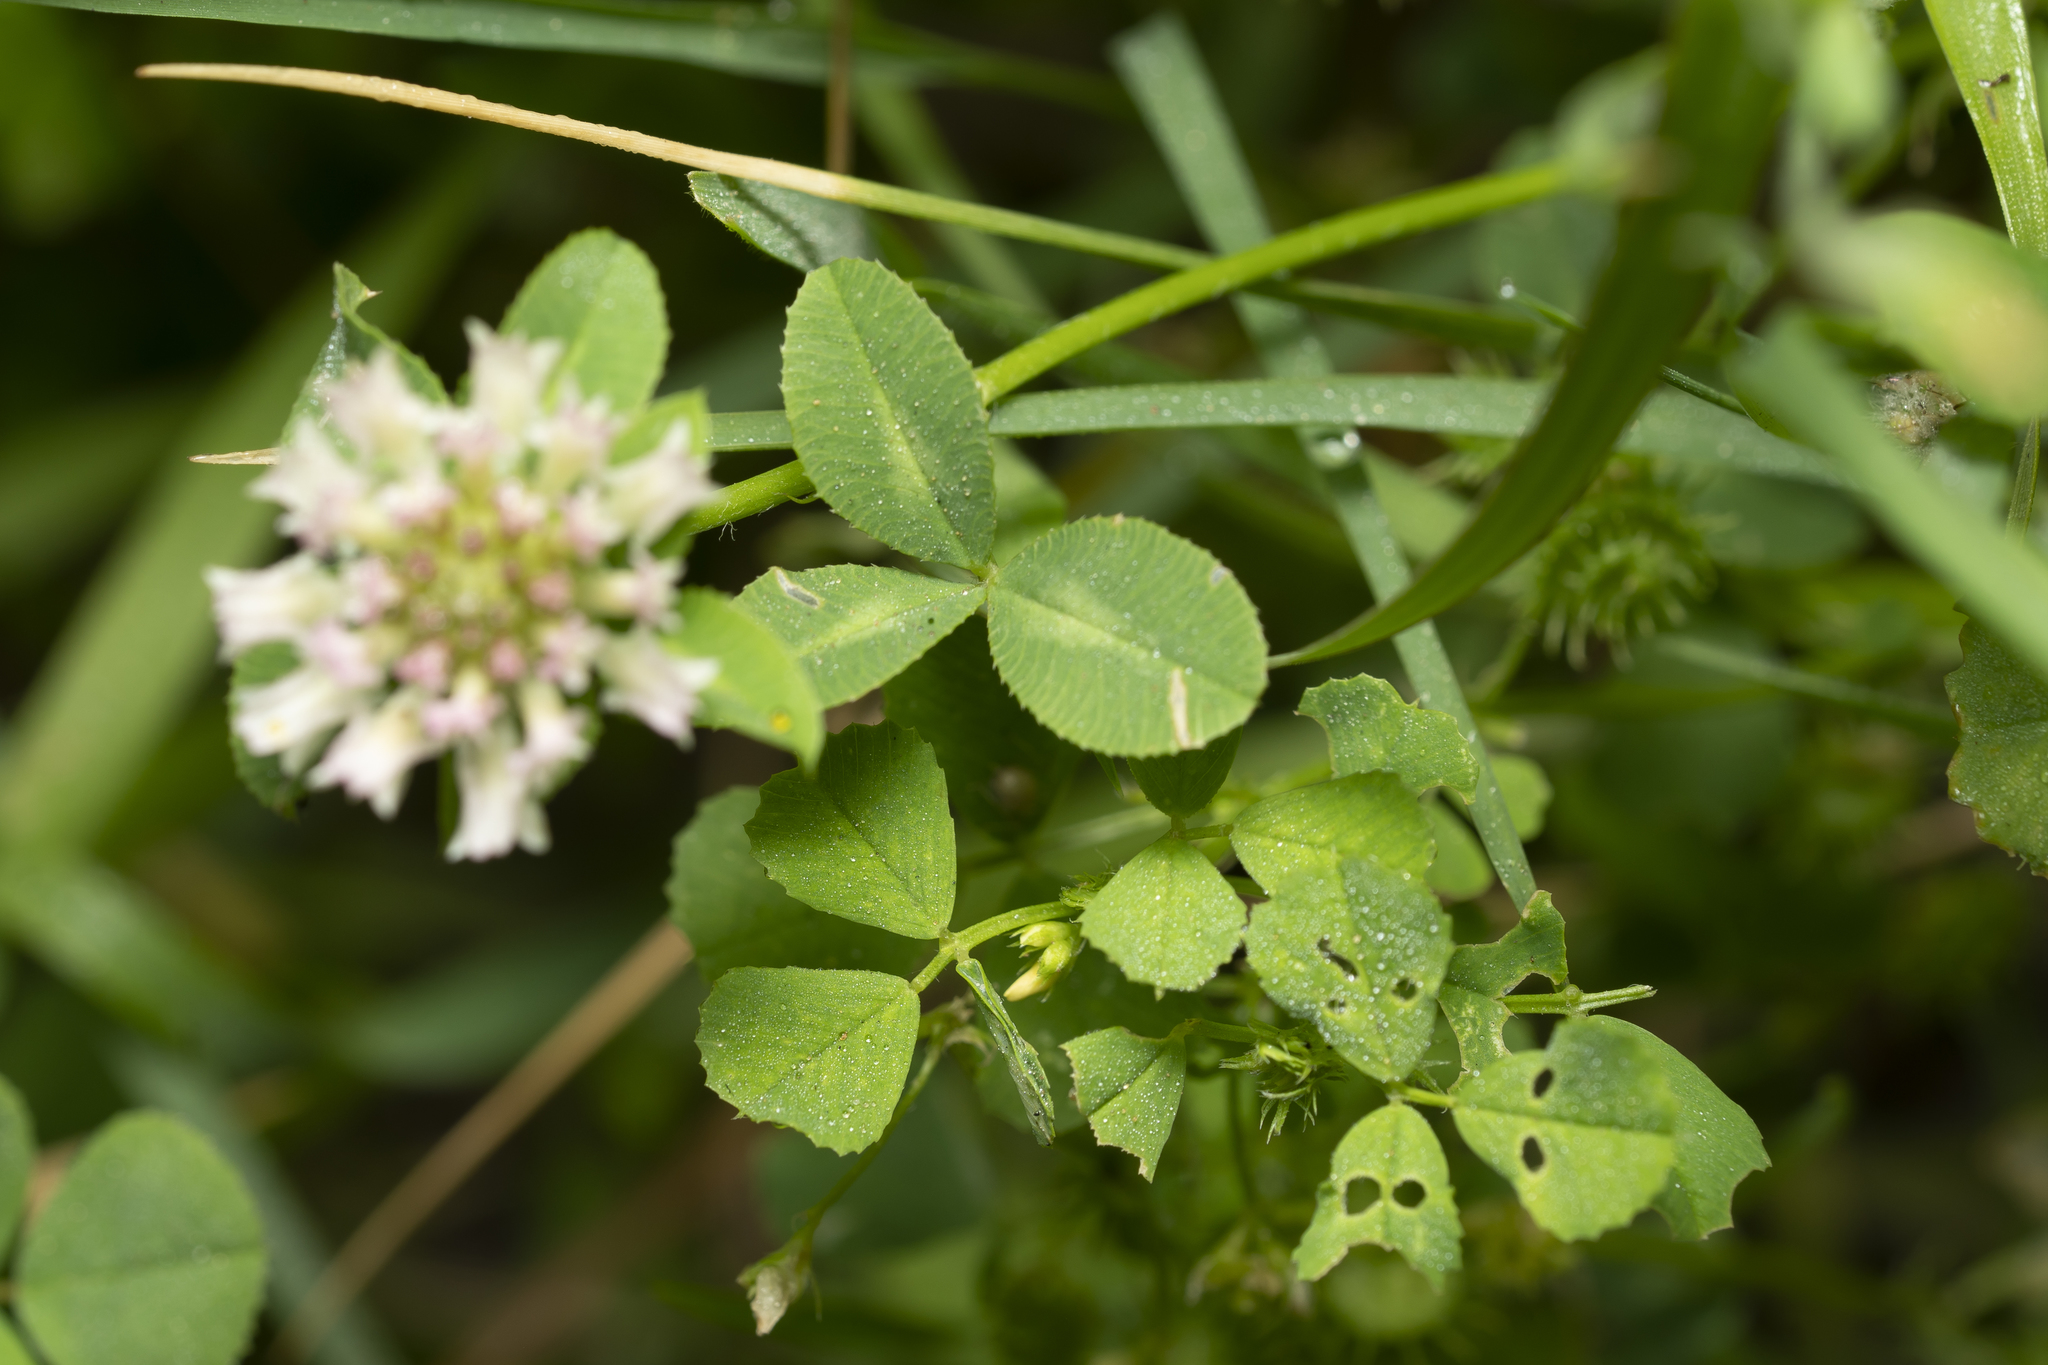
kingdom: Plantae
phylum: Tracheophyta
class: Magnoliopsida
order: Fabales
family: Fabaceae
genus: Trifolium
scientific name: Trifolium nigrescens
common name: Small white clover
